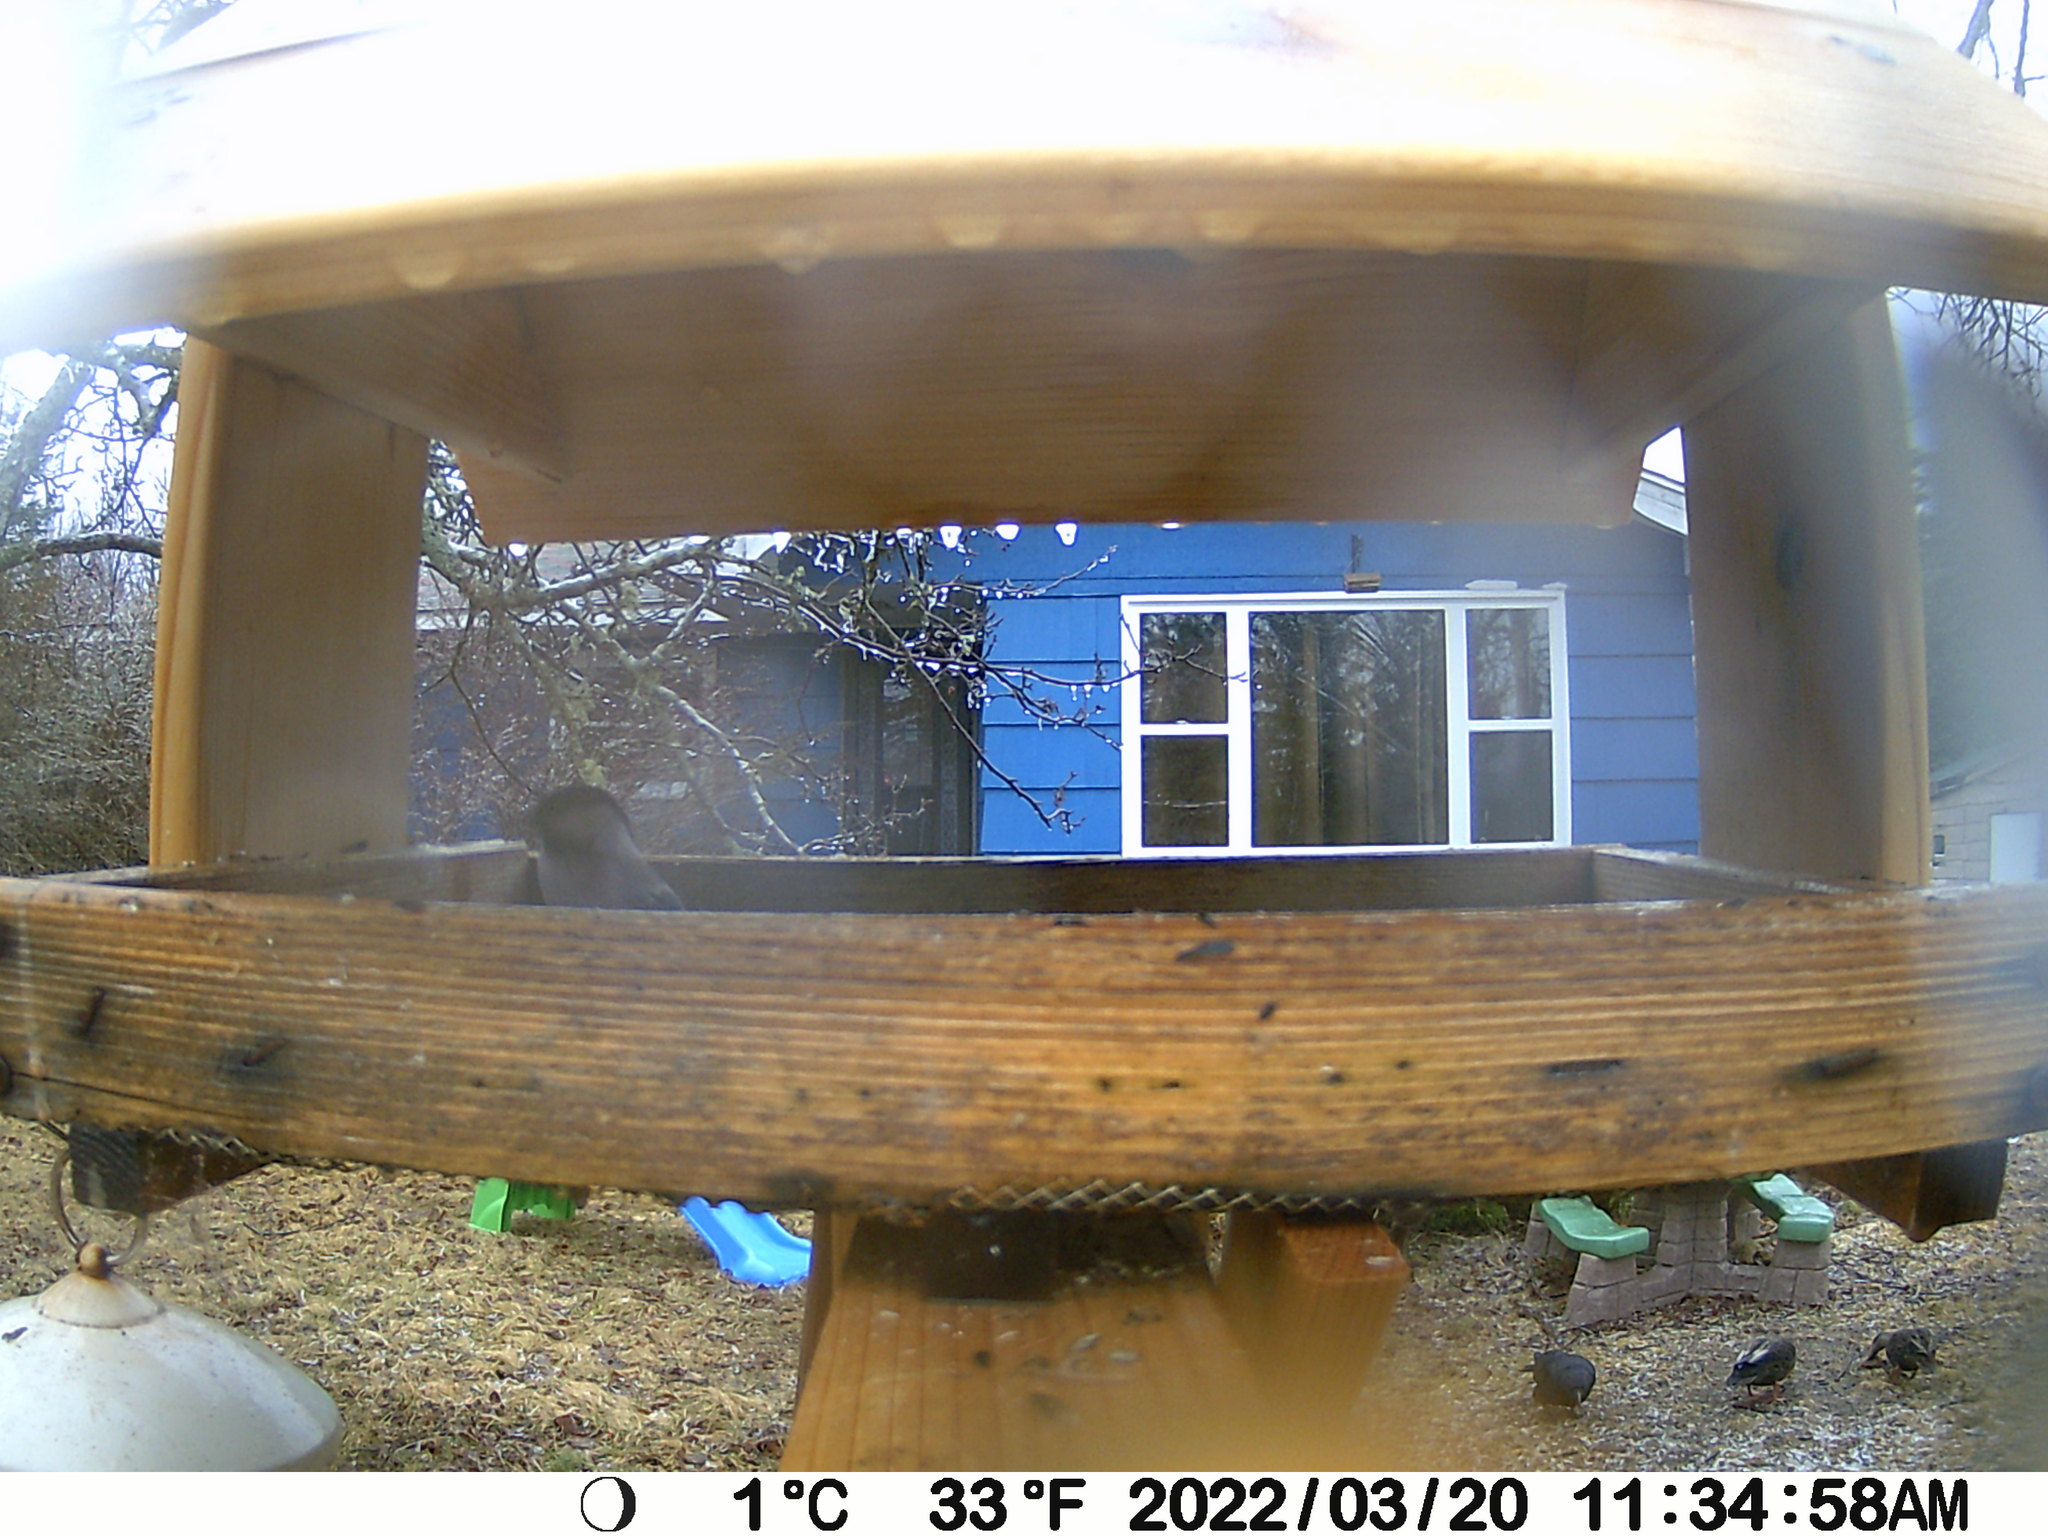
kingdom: Animalia
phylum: Chordata
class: Aves
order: Passeriformes
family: Corvidae
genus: Corvus
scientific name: Corvus brachyrhynchos
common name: American crow
